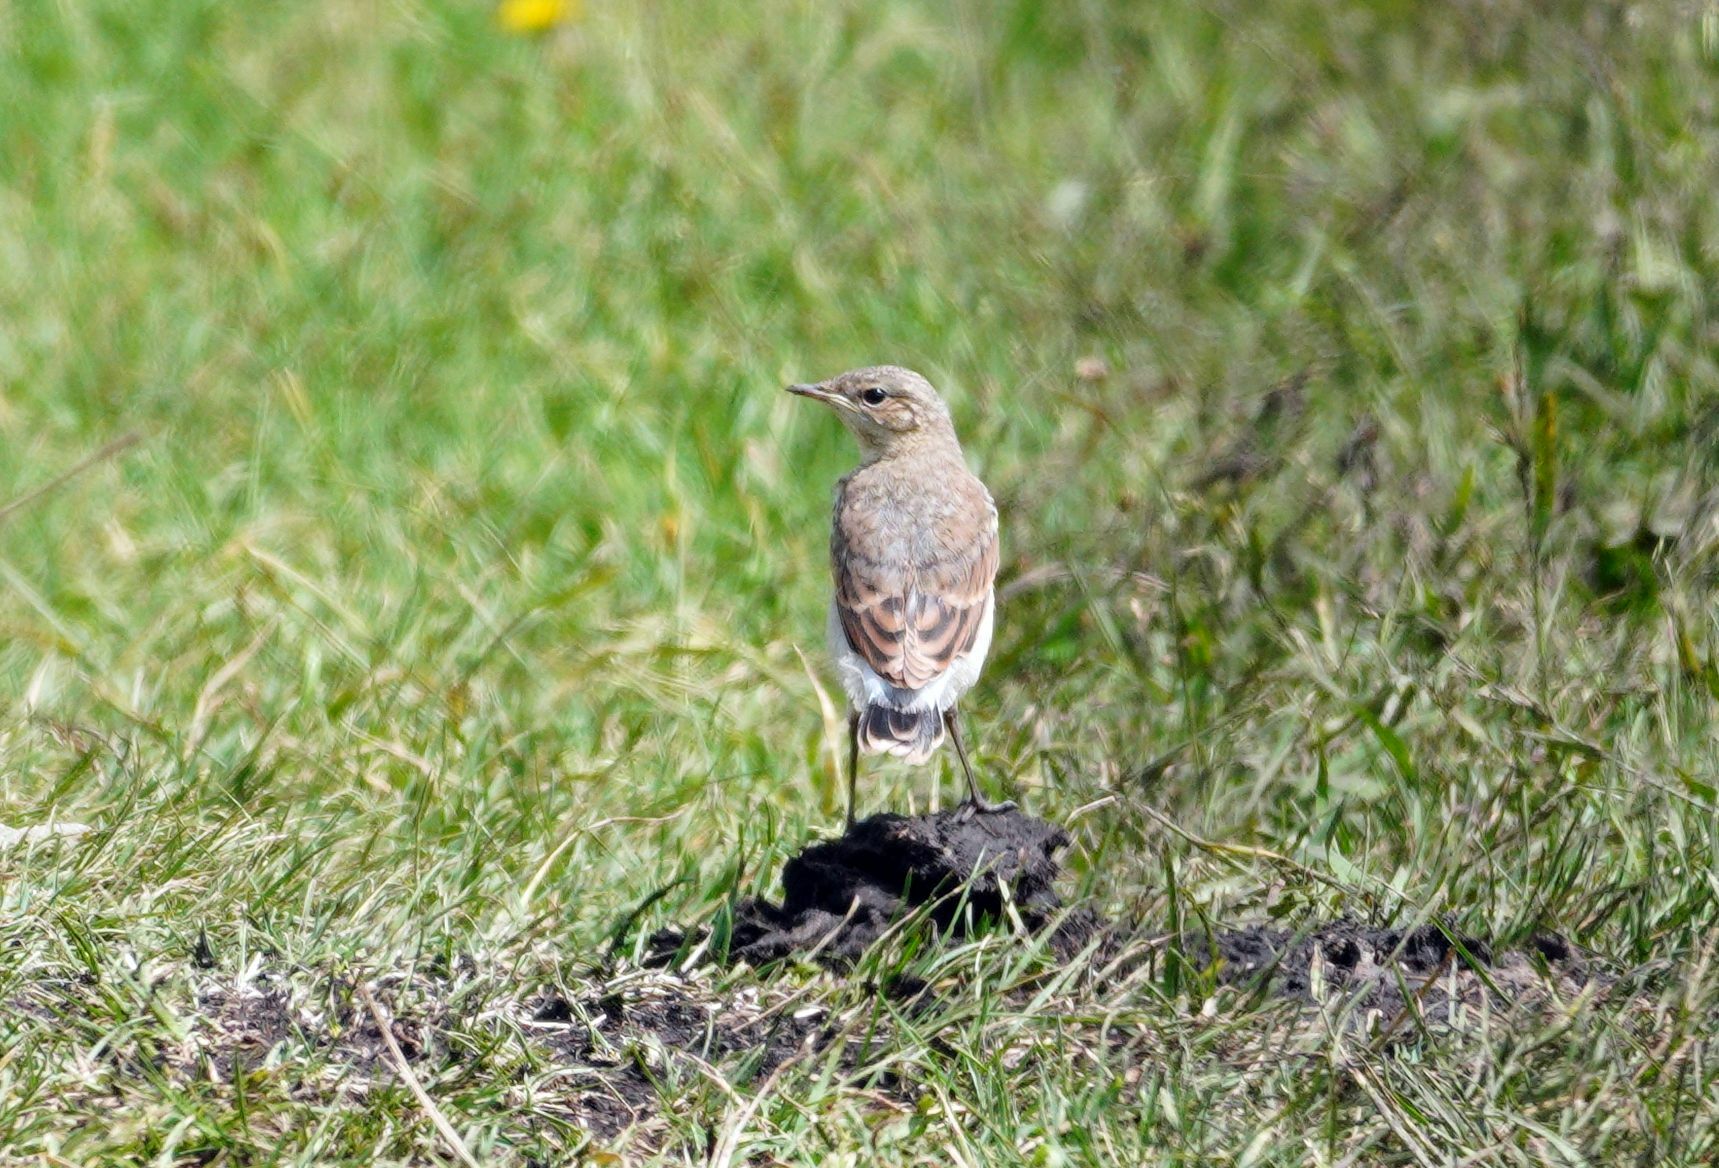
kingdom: Animalia
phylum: Chordata
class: Aves
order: Passeriformes
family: Muscicapidae
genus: Oenanthe
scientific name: Oenanthe oenanthe
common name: Northern wheatear
